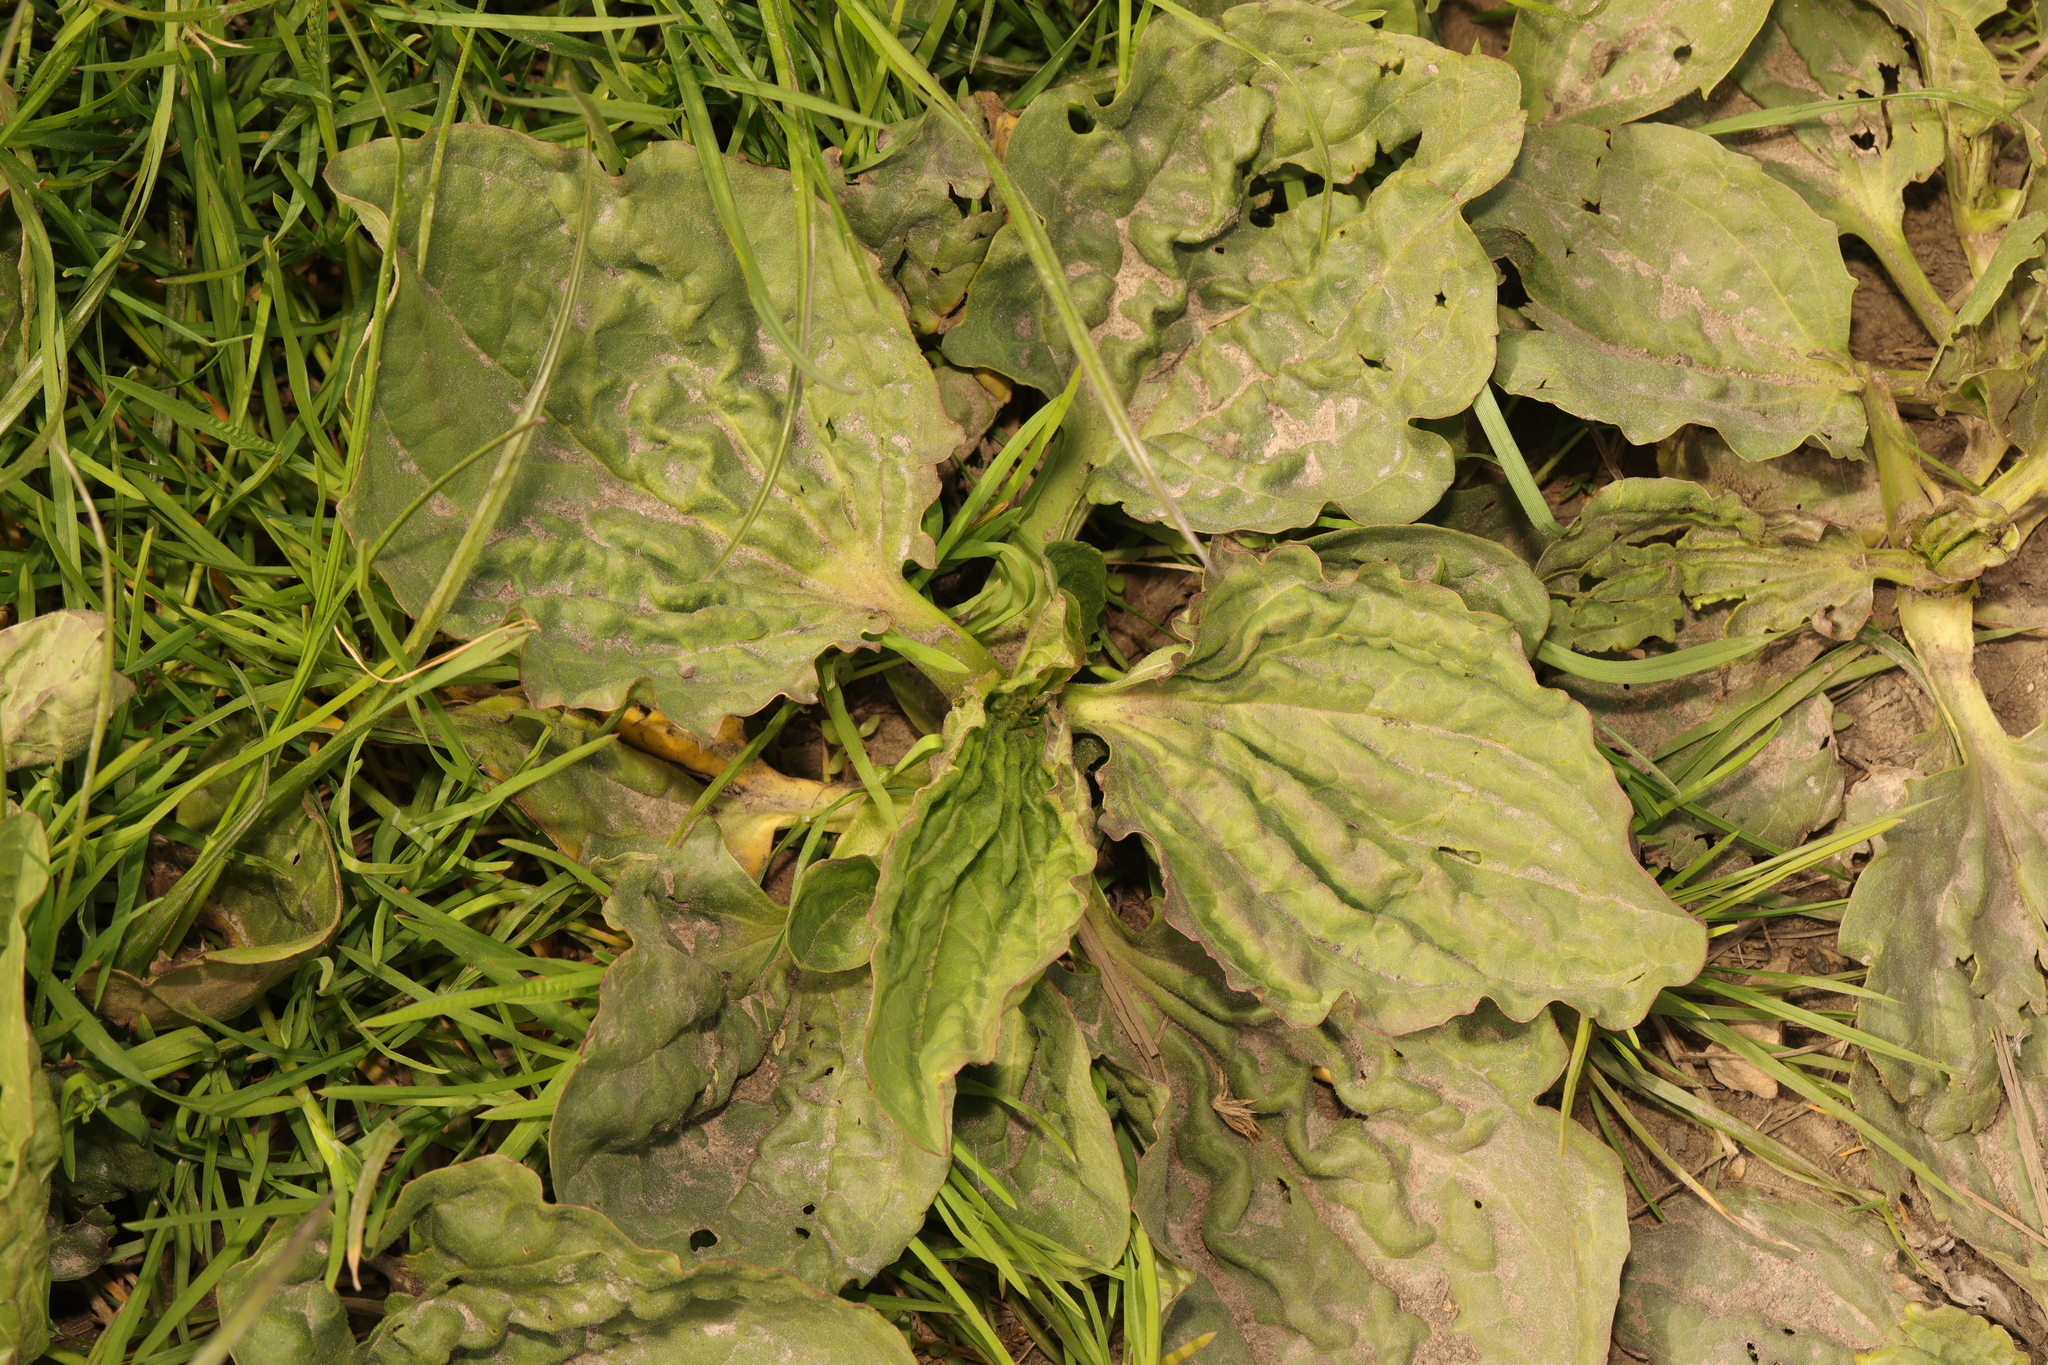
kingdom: Plantae
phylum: Tracheophyta
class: Magnoliopsida
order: Lamiales
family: Plantaginaceae
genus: Plantago
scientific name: Plantago major
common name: Common plantain
